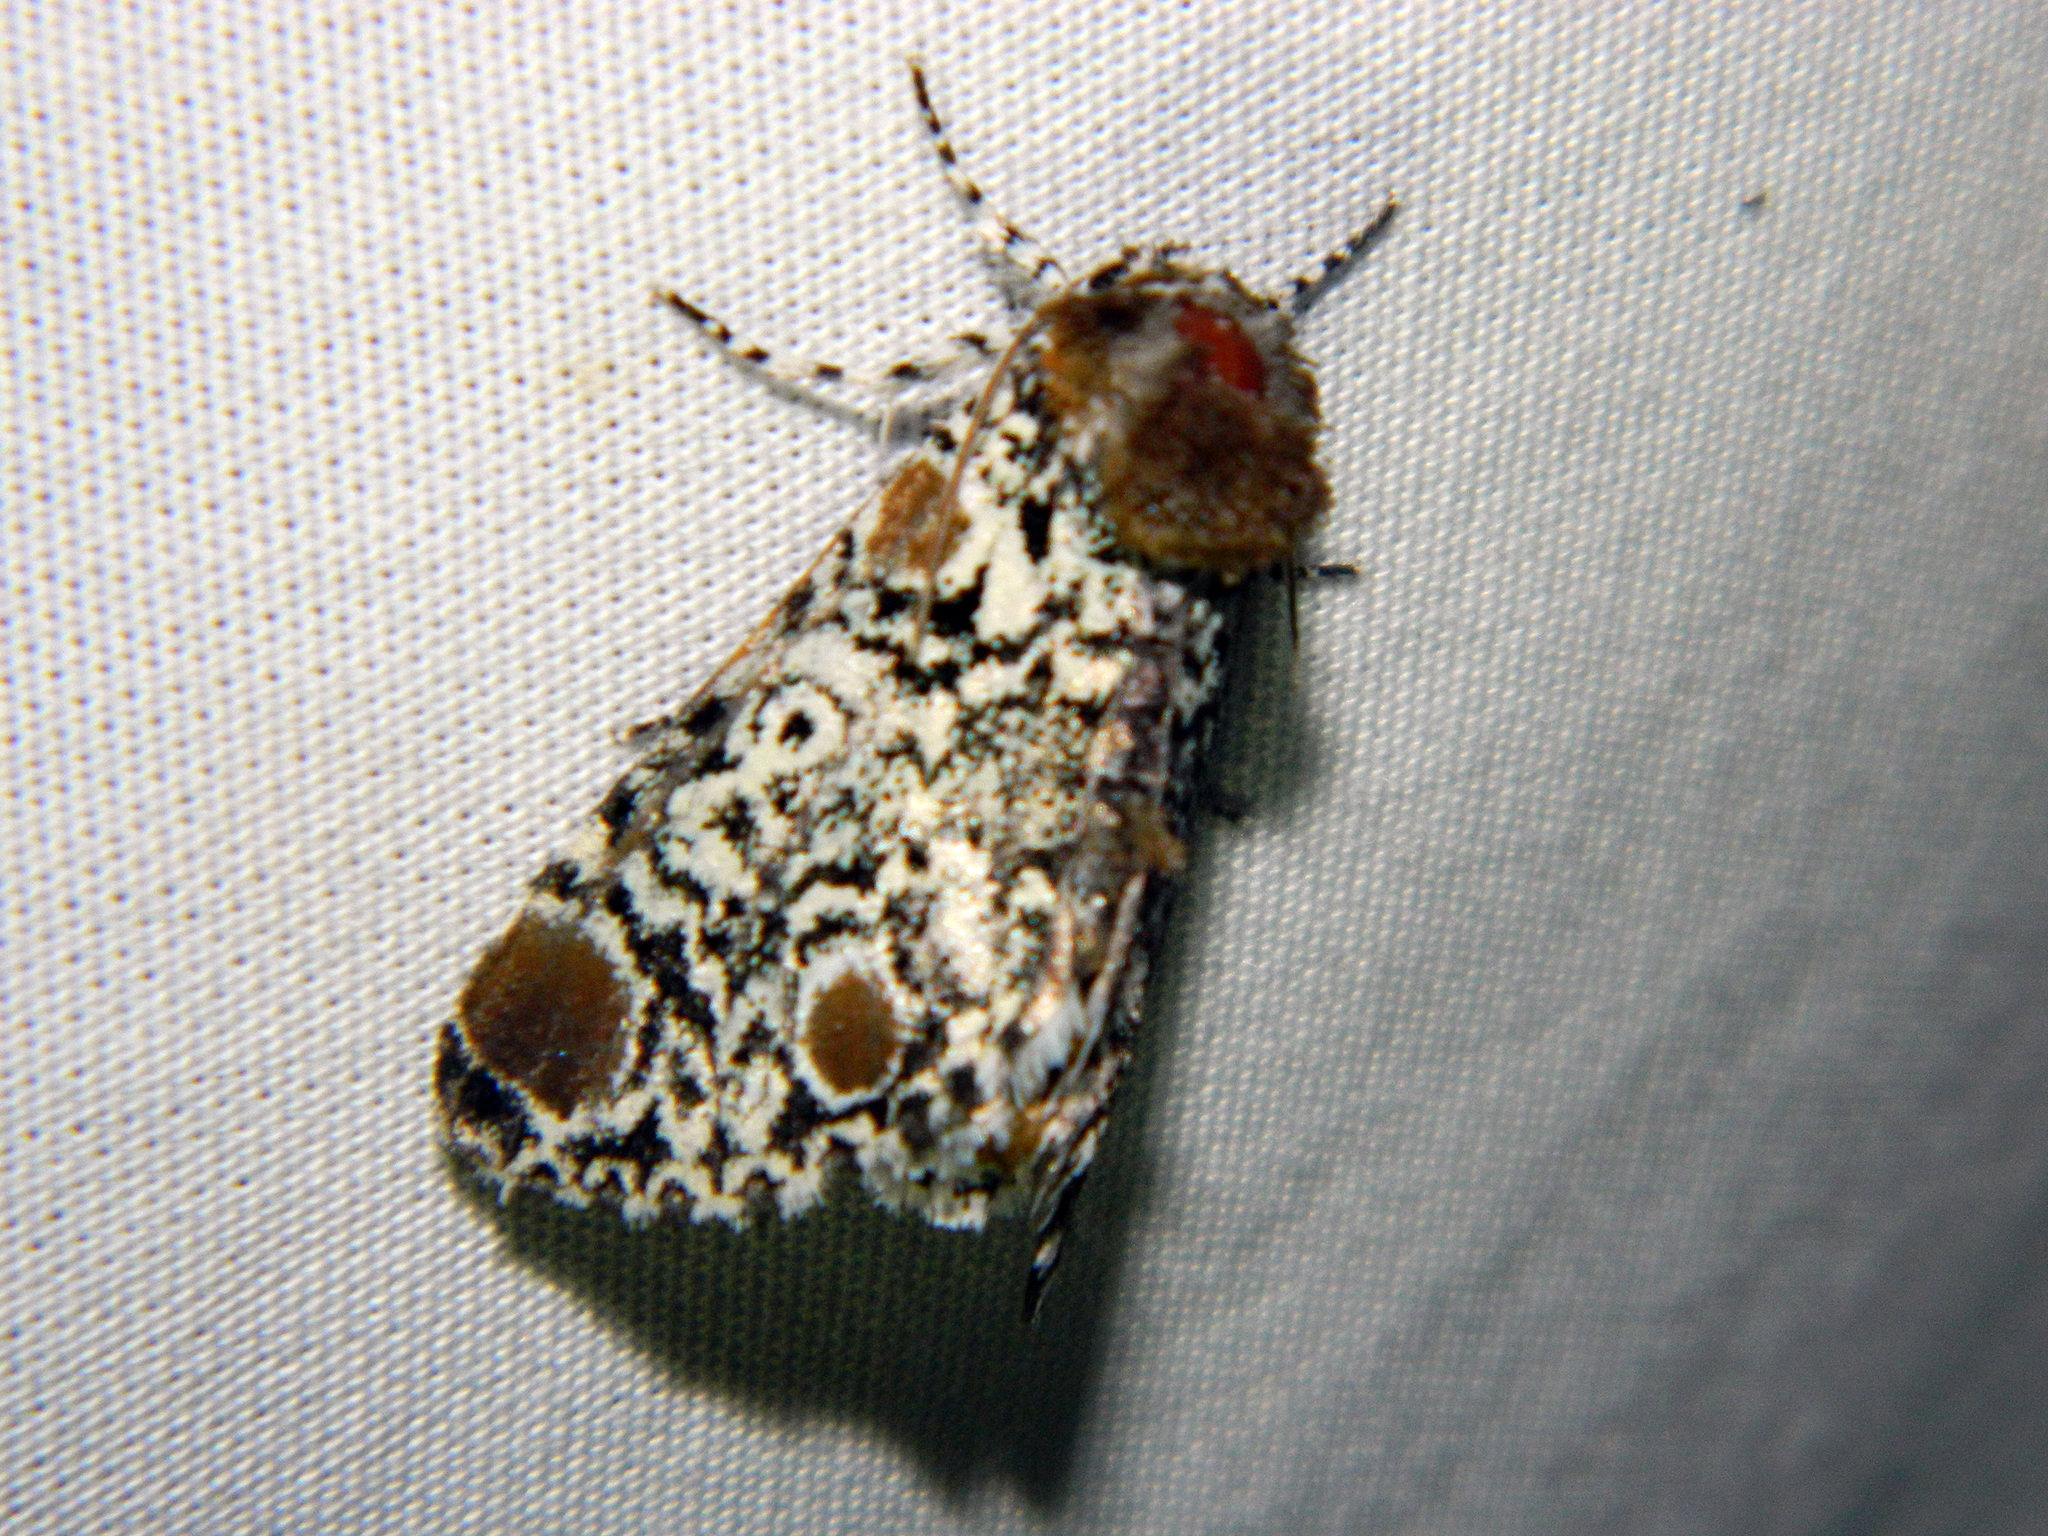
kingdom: Animalia
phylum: Arthropoda
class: Insecta
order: Lepidoptera
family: Noctuidae
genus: Harrisimemna
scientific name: Harrisimemna trisignata
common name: Harris threespot
